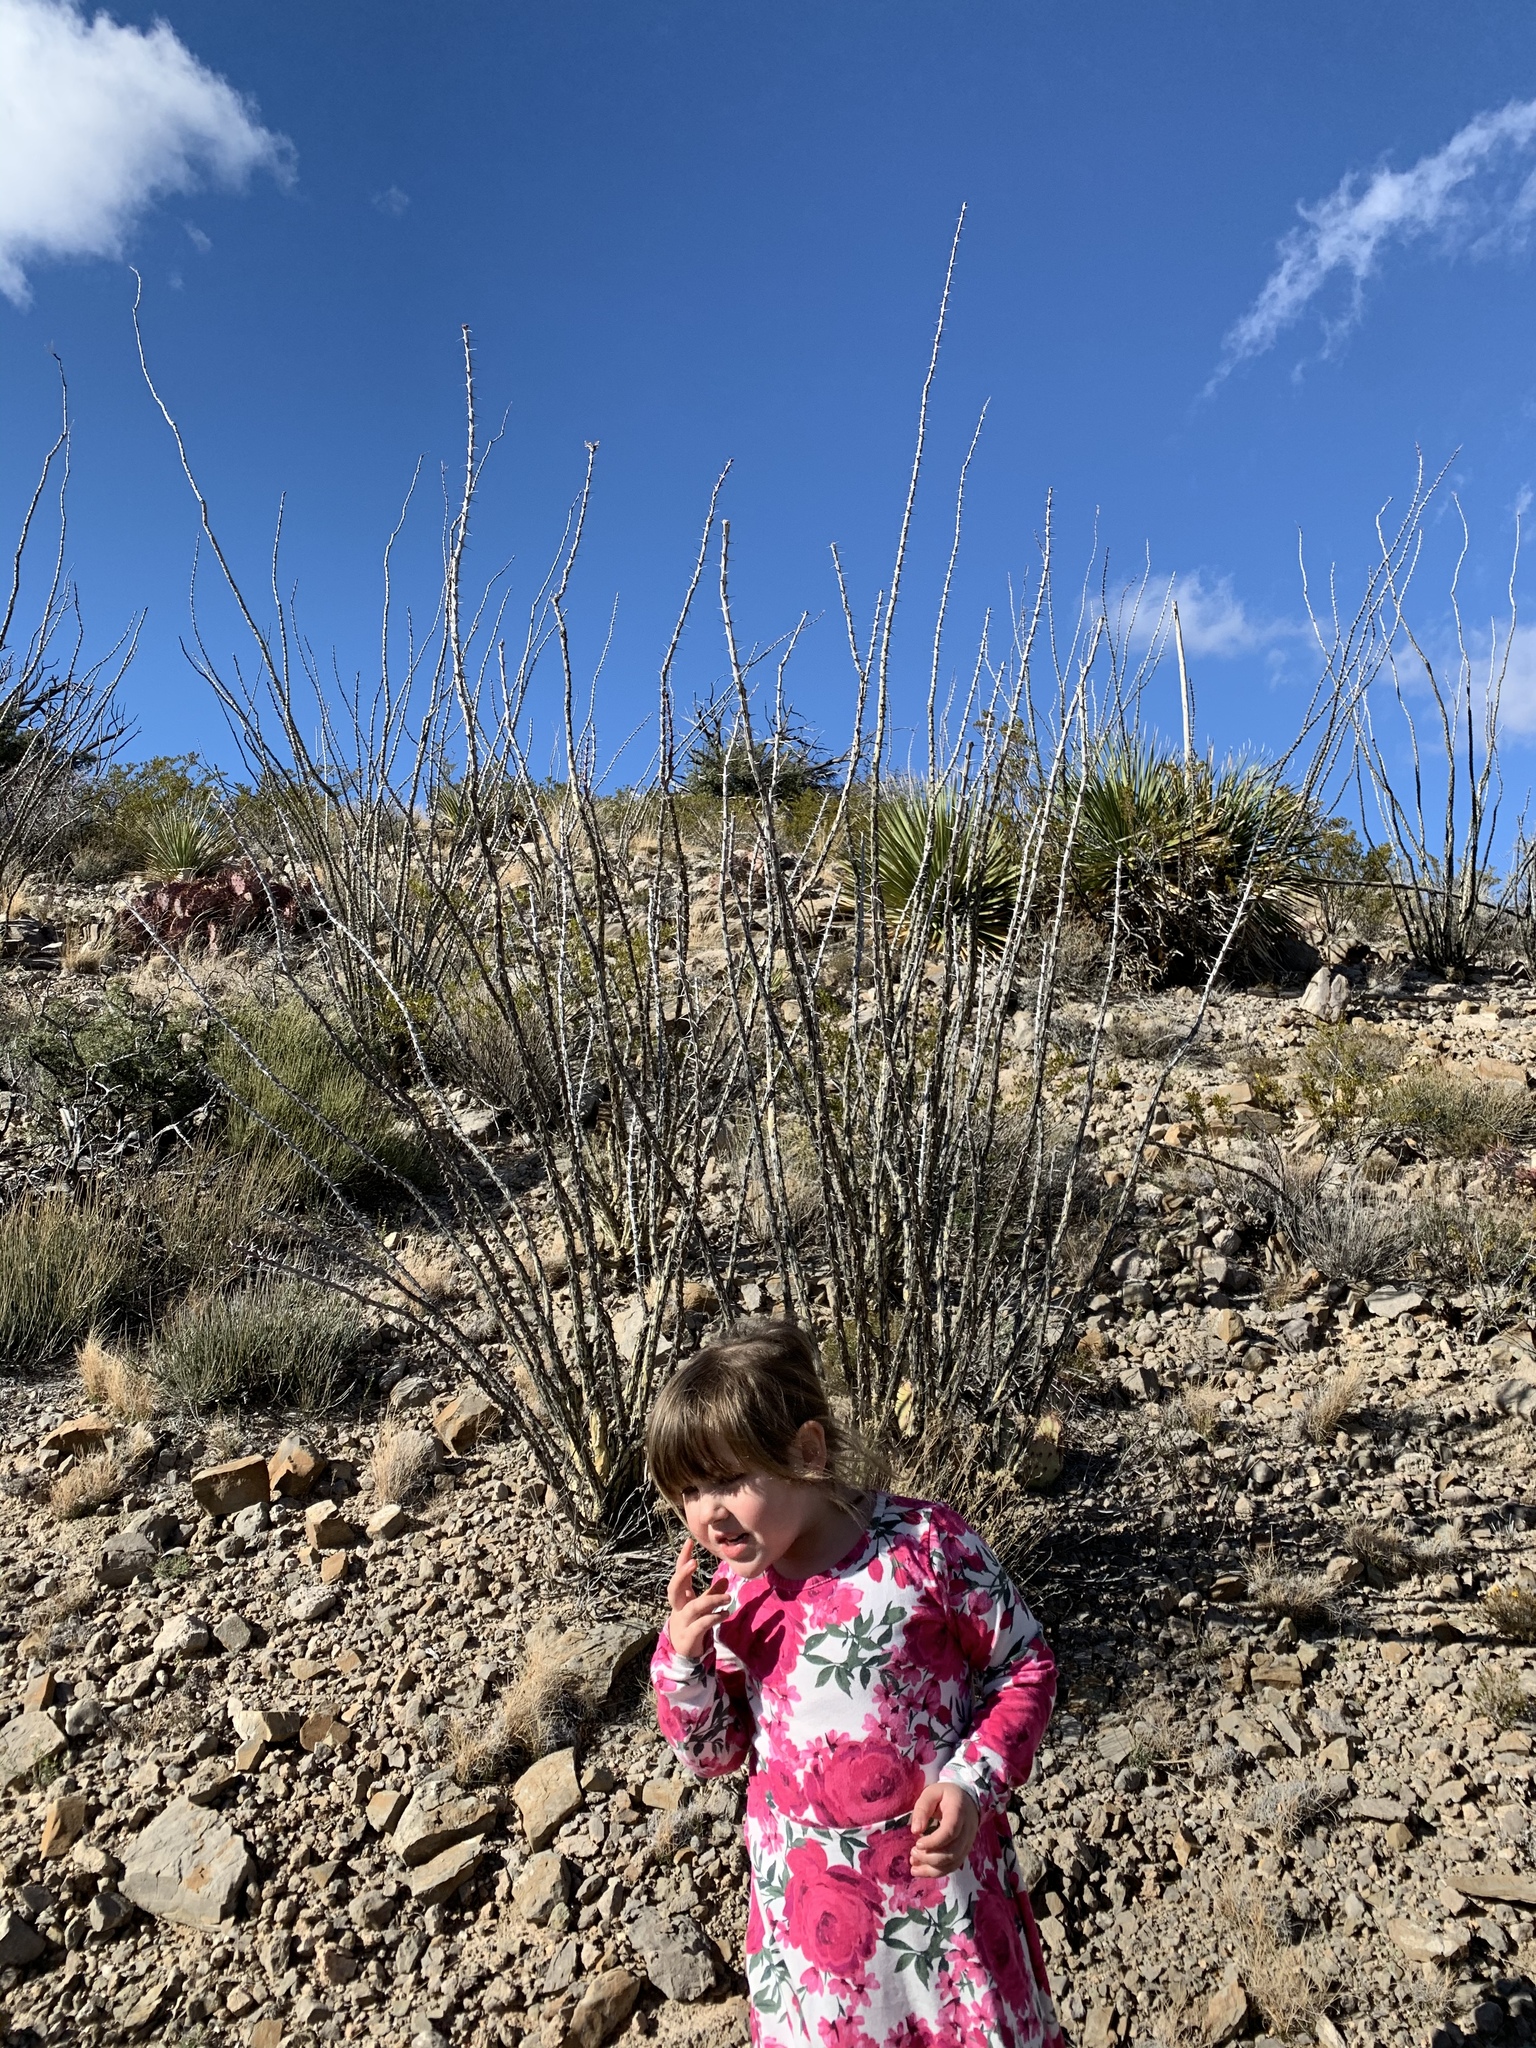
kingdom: Plantae
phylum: Tracheophyta
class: Magnoliopsida
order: Ericales
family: Fouquieriaceae
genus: Fouquieria
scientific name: Fouquieria splendens
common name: Vine-cactus
